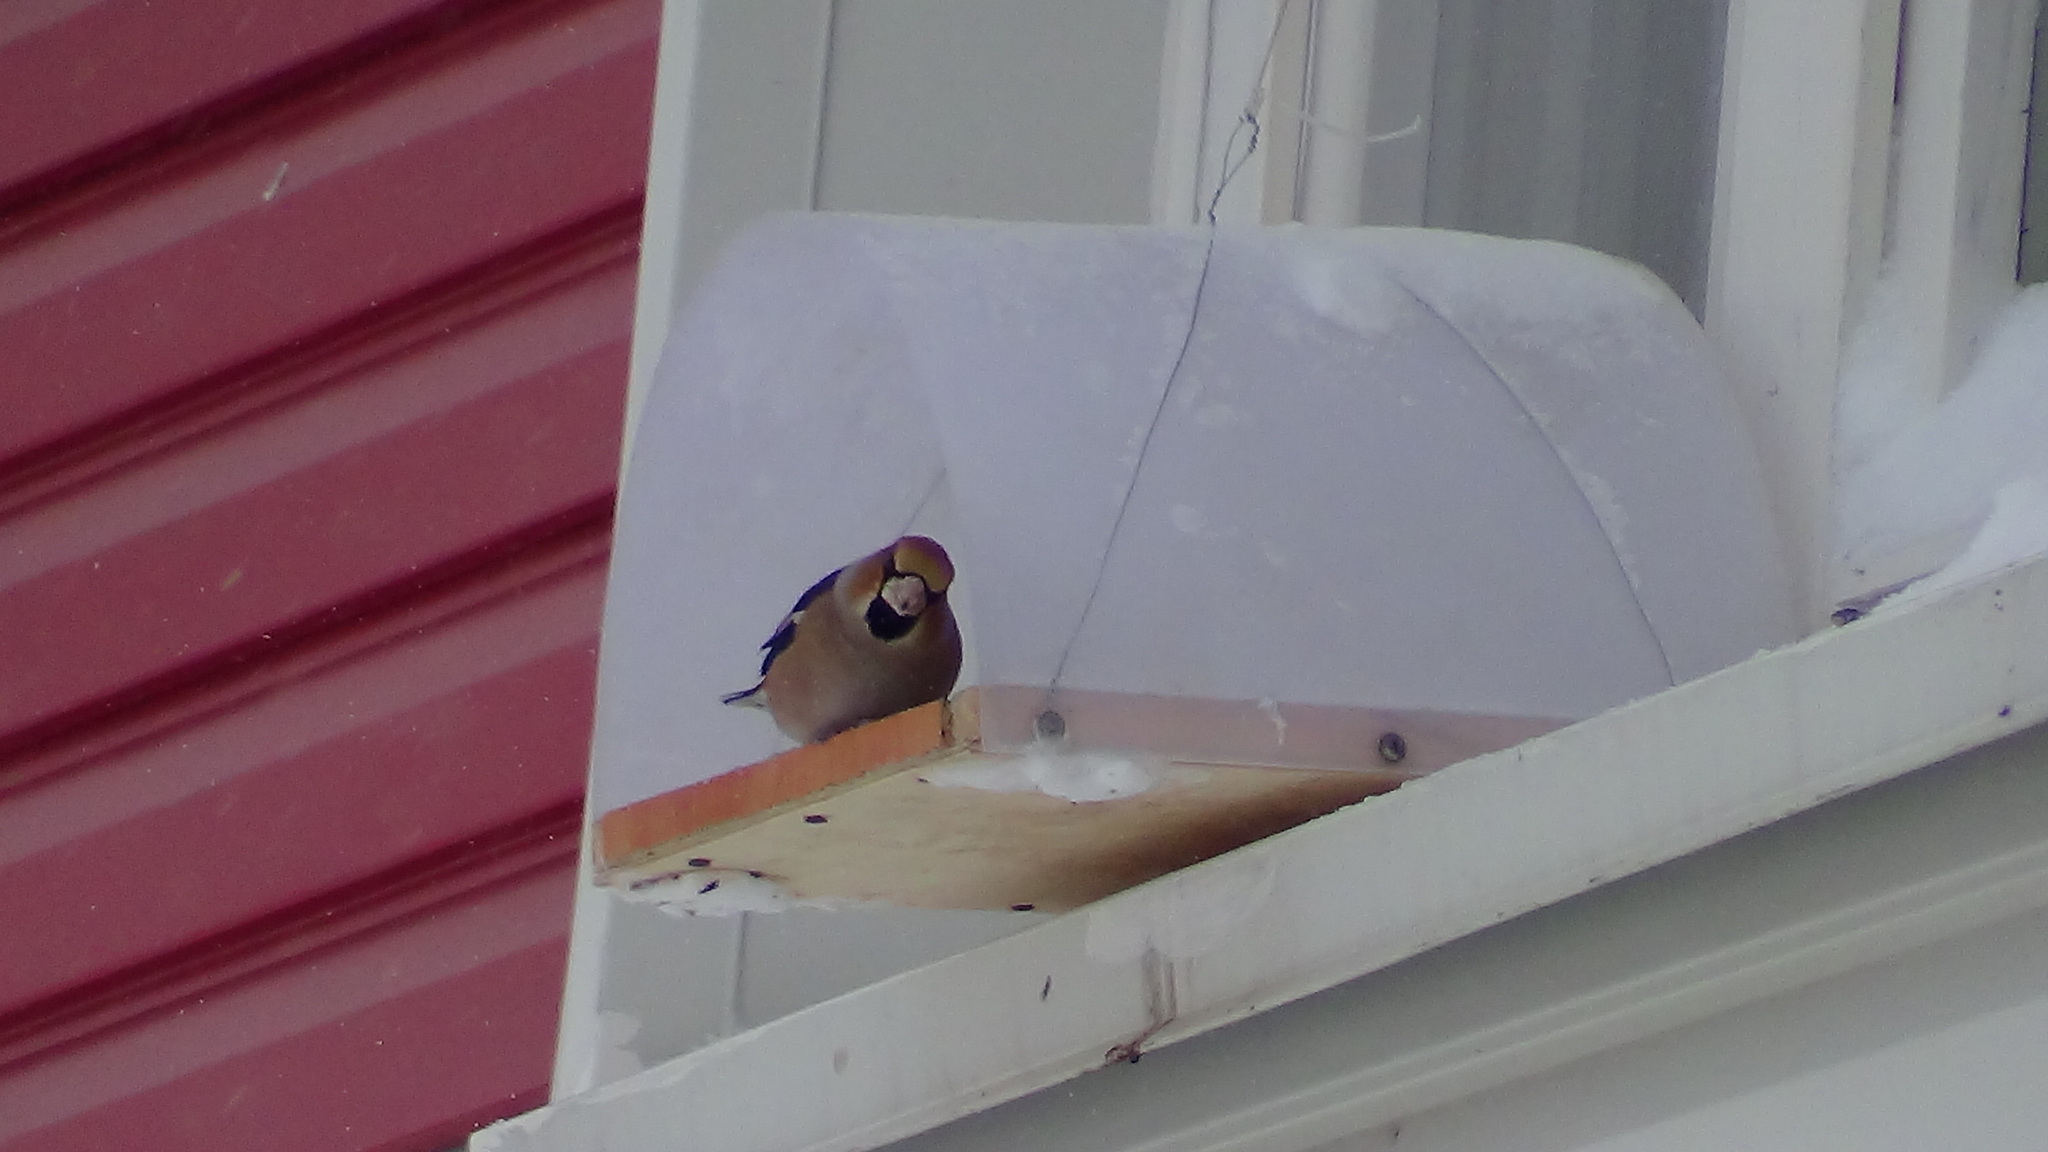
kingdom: Animalia
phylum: Chordata
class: Aves
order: Passeriformes
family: Fringillidae
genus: Coccothraustes
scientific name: Coccothraustes coccothraustes
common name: Hawfinch
